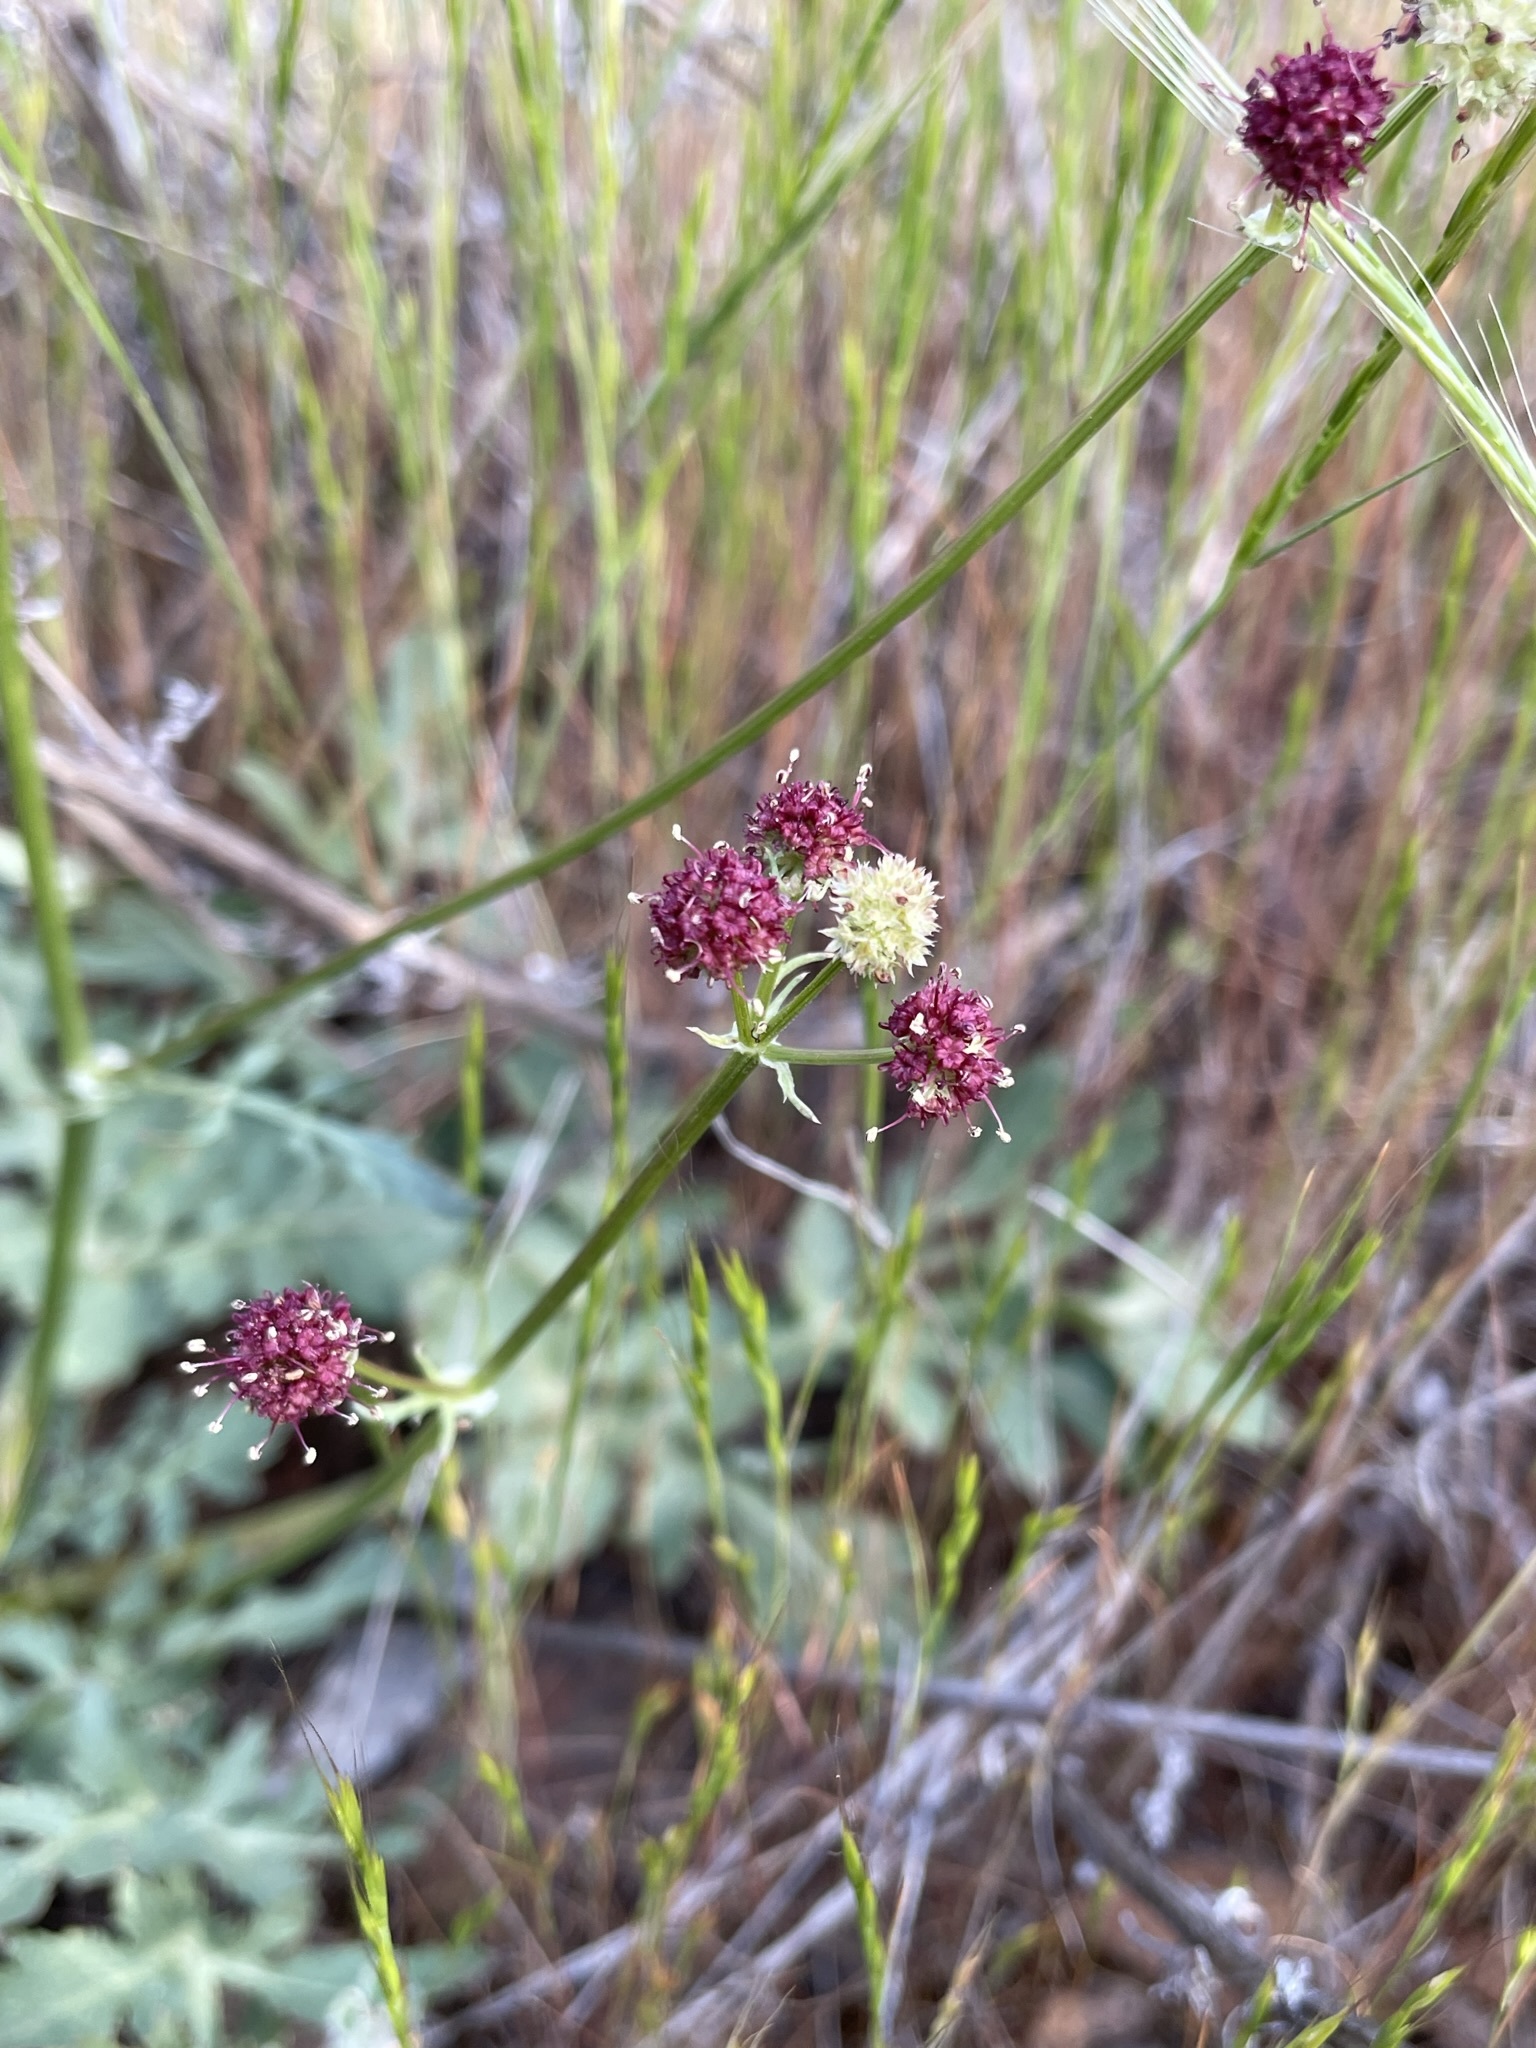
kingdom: Plantae
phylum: Tracheophyta
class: Magnoliopsida
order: Apiales
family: Apiaceae
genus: Sanicula
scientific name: Sanicula bipinnatifida
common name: Shoe-buttons
